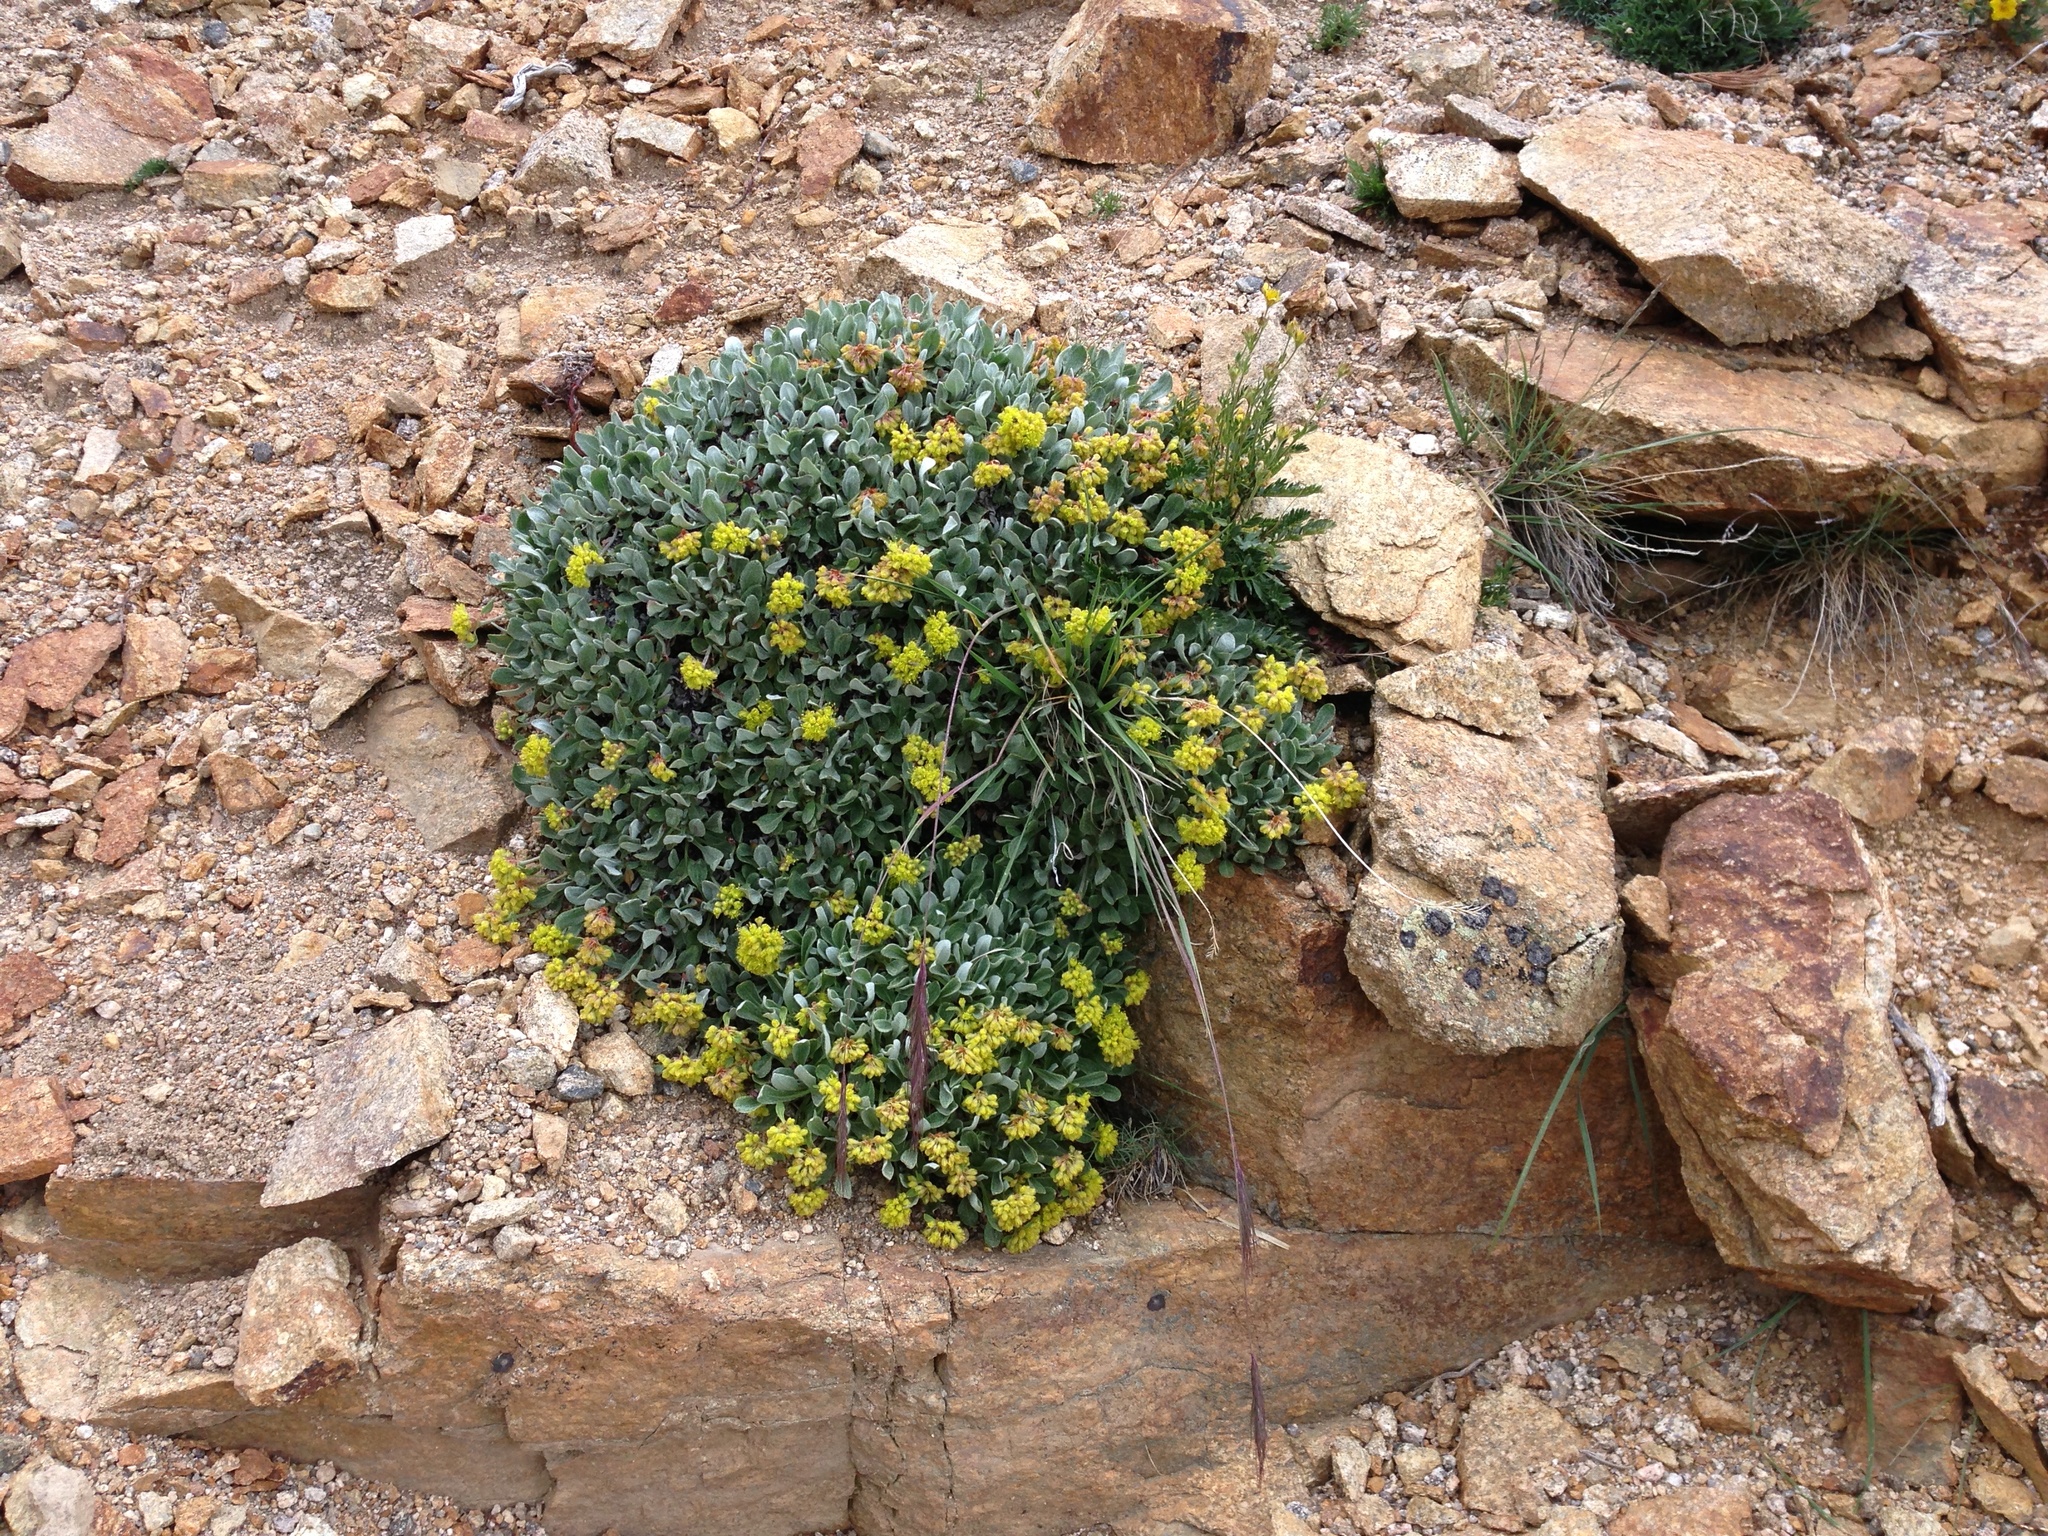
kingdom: Plantae
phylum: Tracheophyta
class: Magnoliopsida
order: Caryophyllales
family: Polygonaceae
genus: Eriogonum
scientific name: Eriogonum flavum
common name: Alpine golden wild buckwheat
